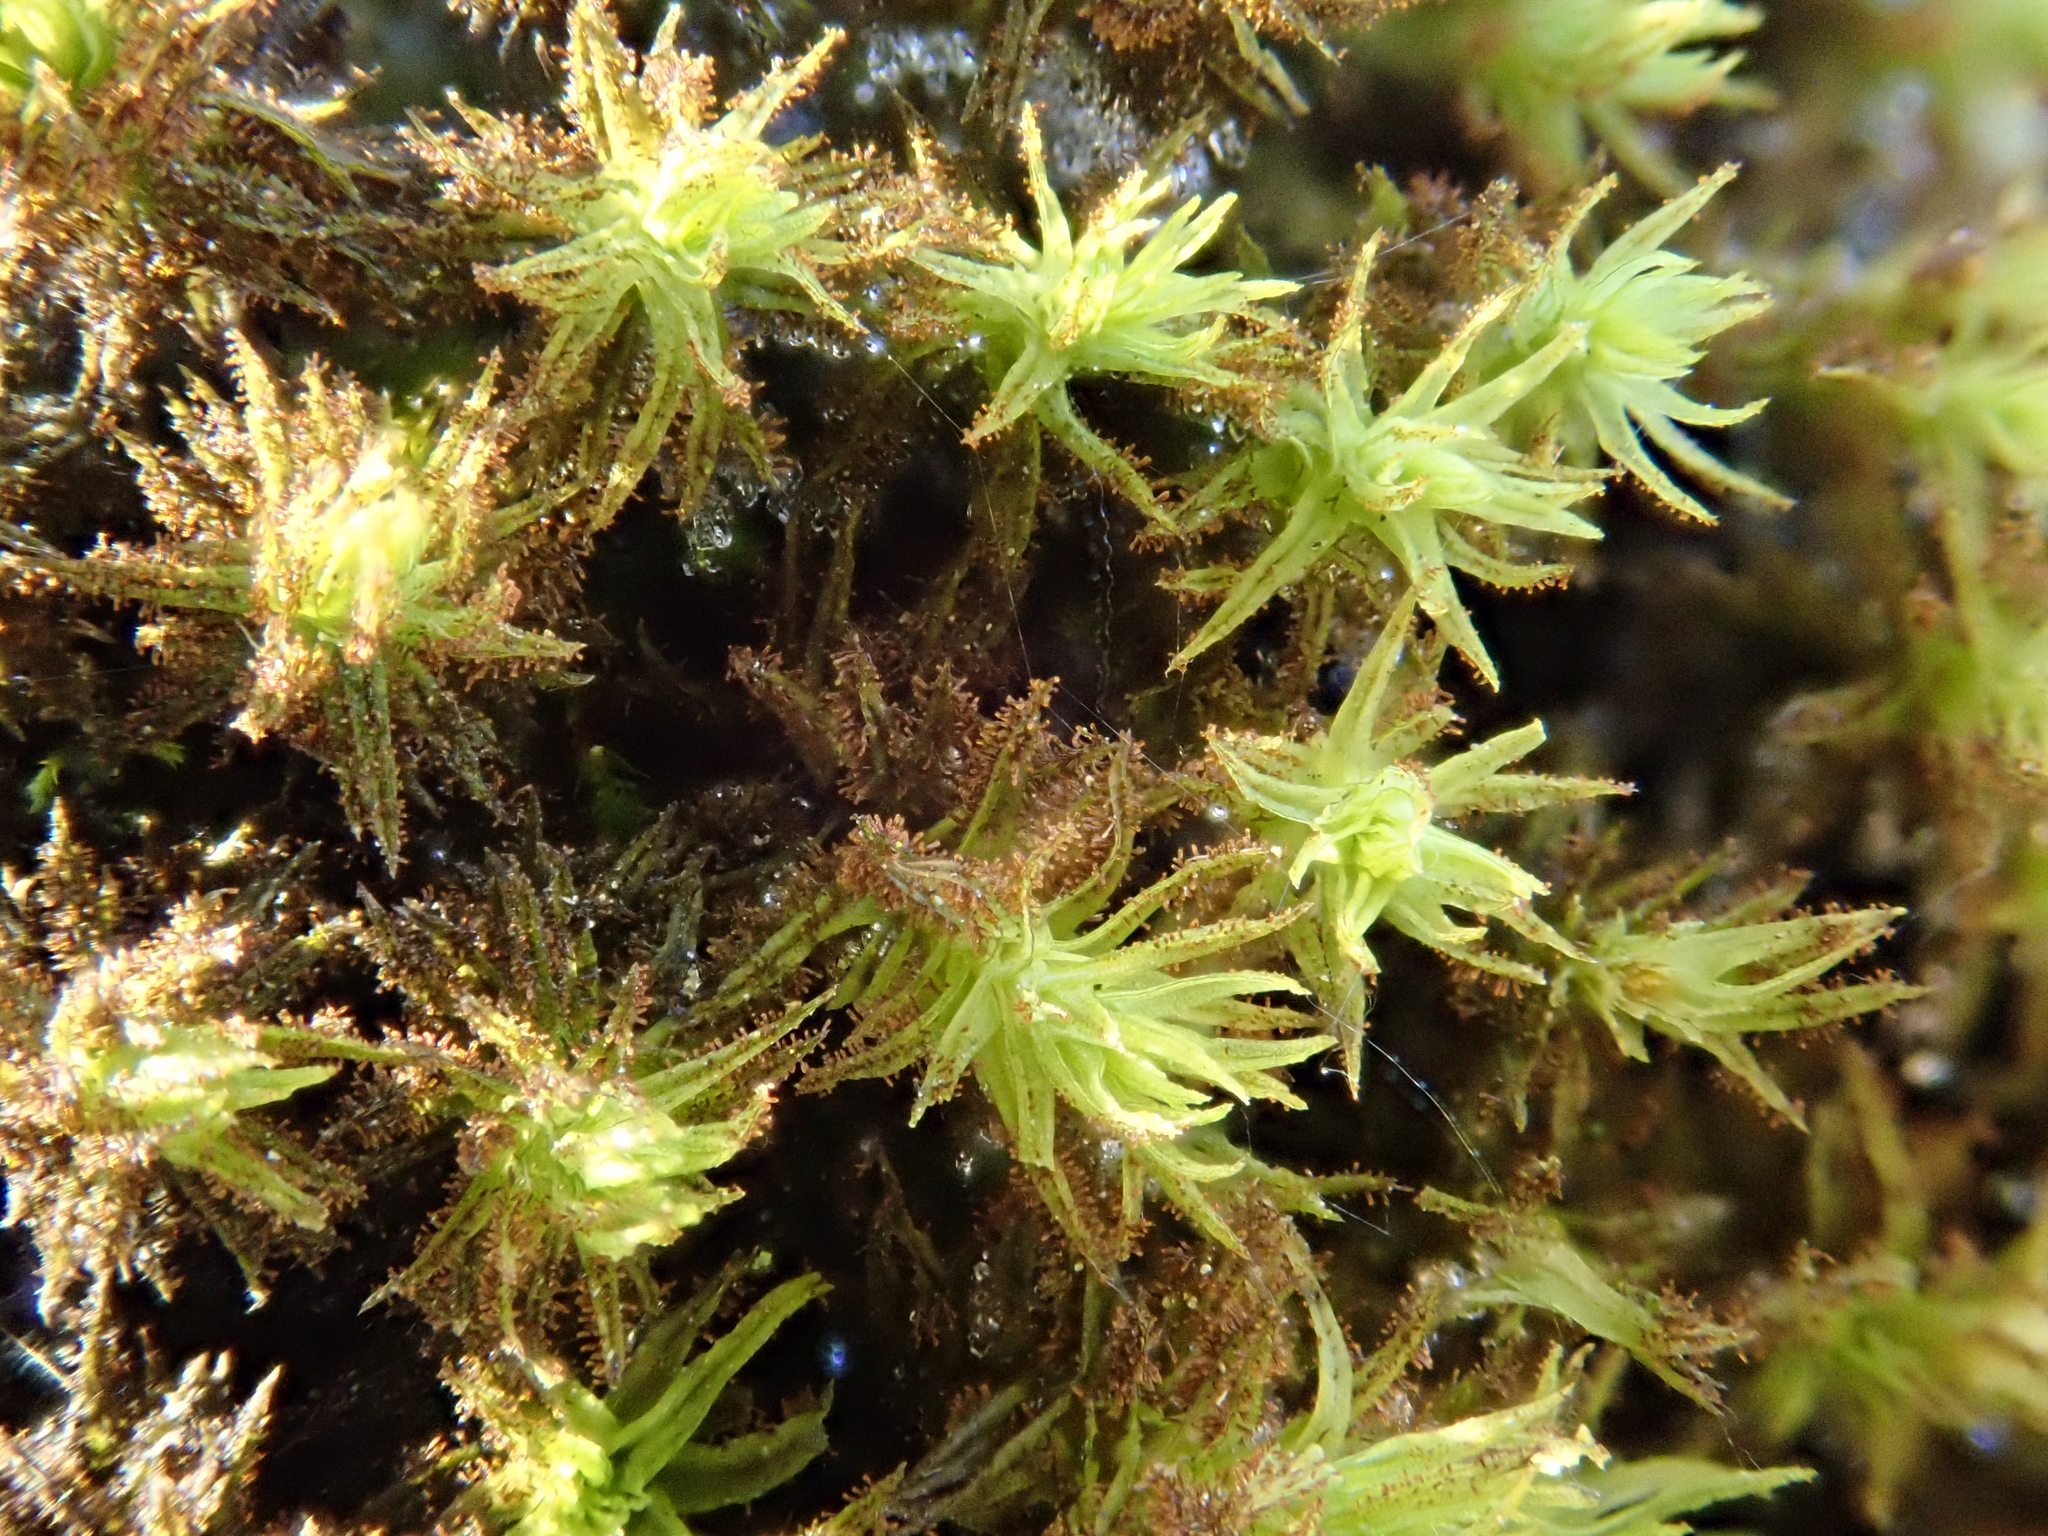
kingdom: Plantae
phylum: Bryophyta
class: Bryopsida
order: Orthotrichales
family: Orthotrichaceae
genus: Pulvigera
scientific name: Pulvigera lyellii
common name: Lyell's bristle-moss
